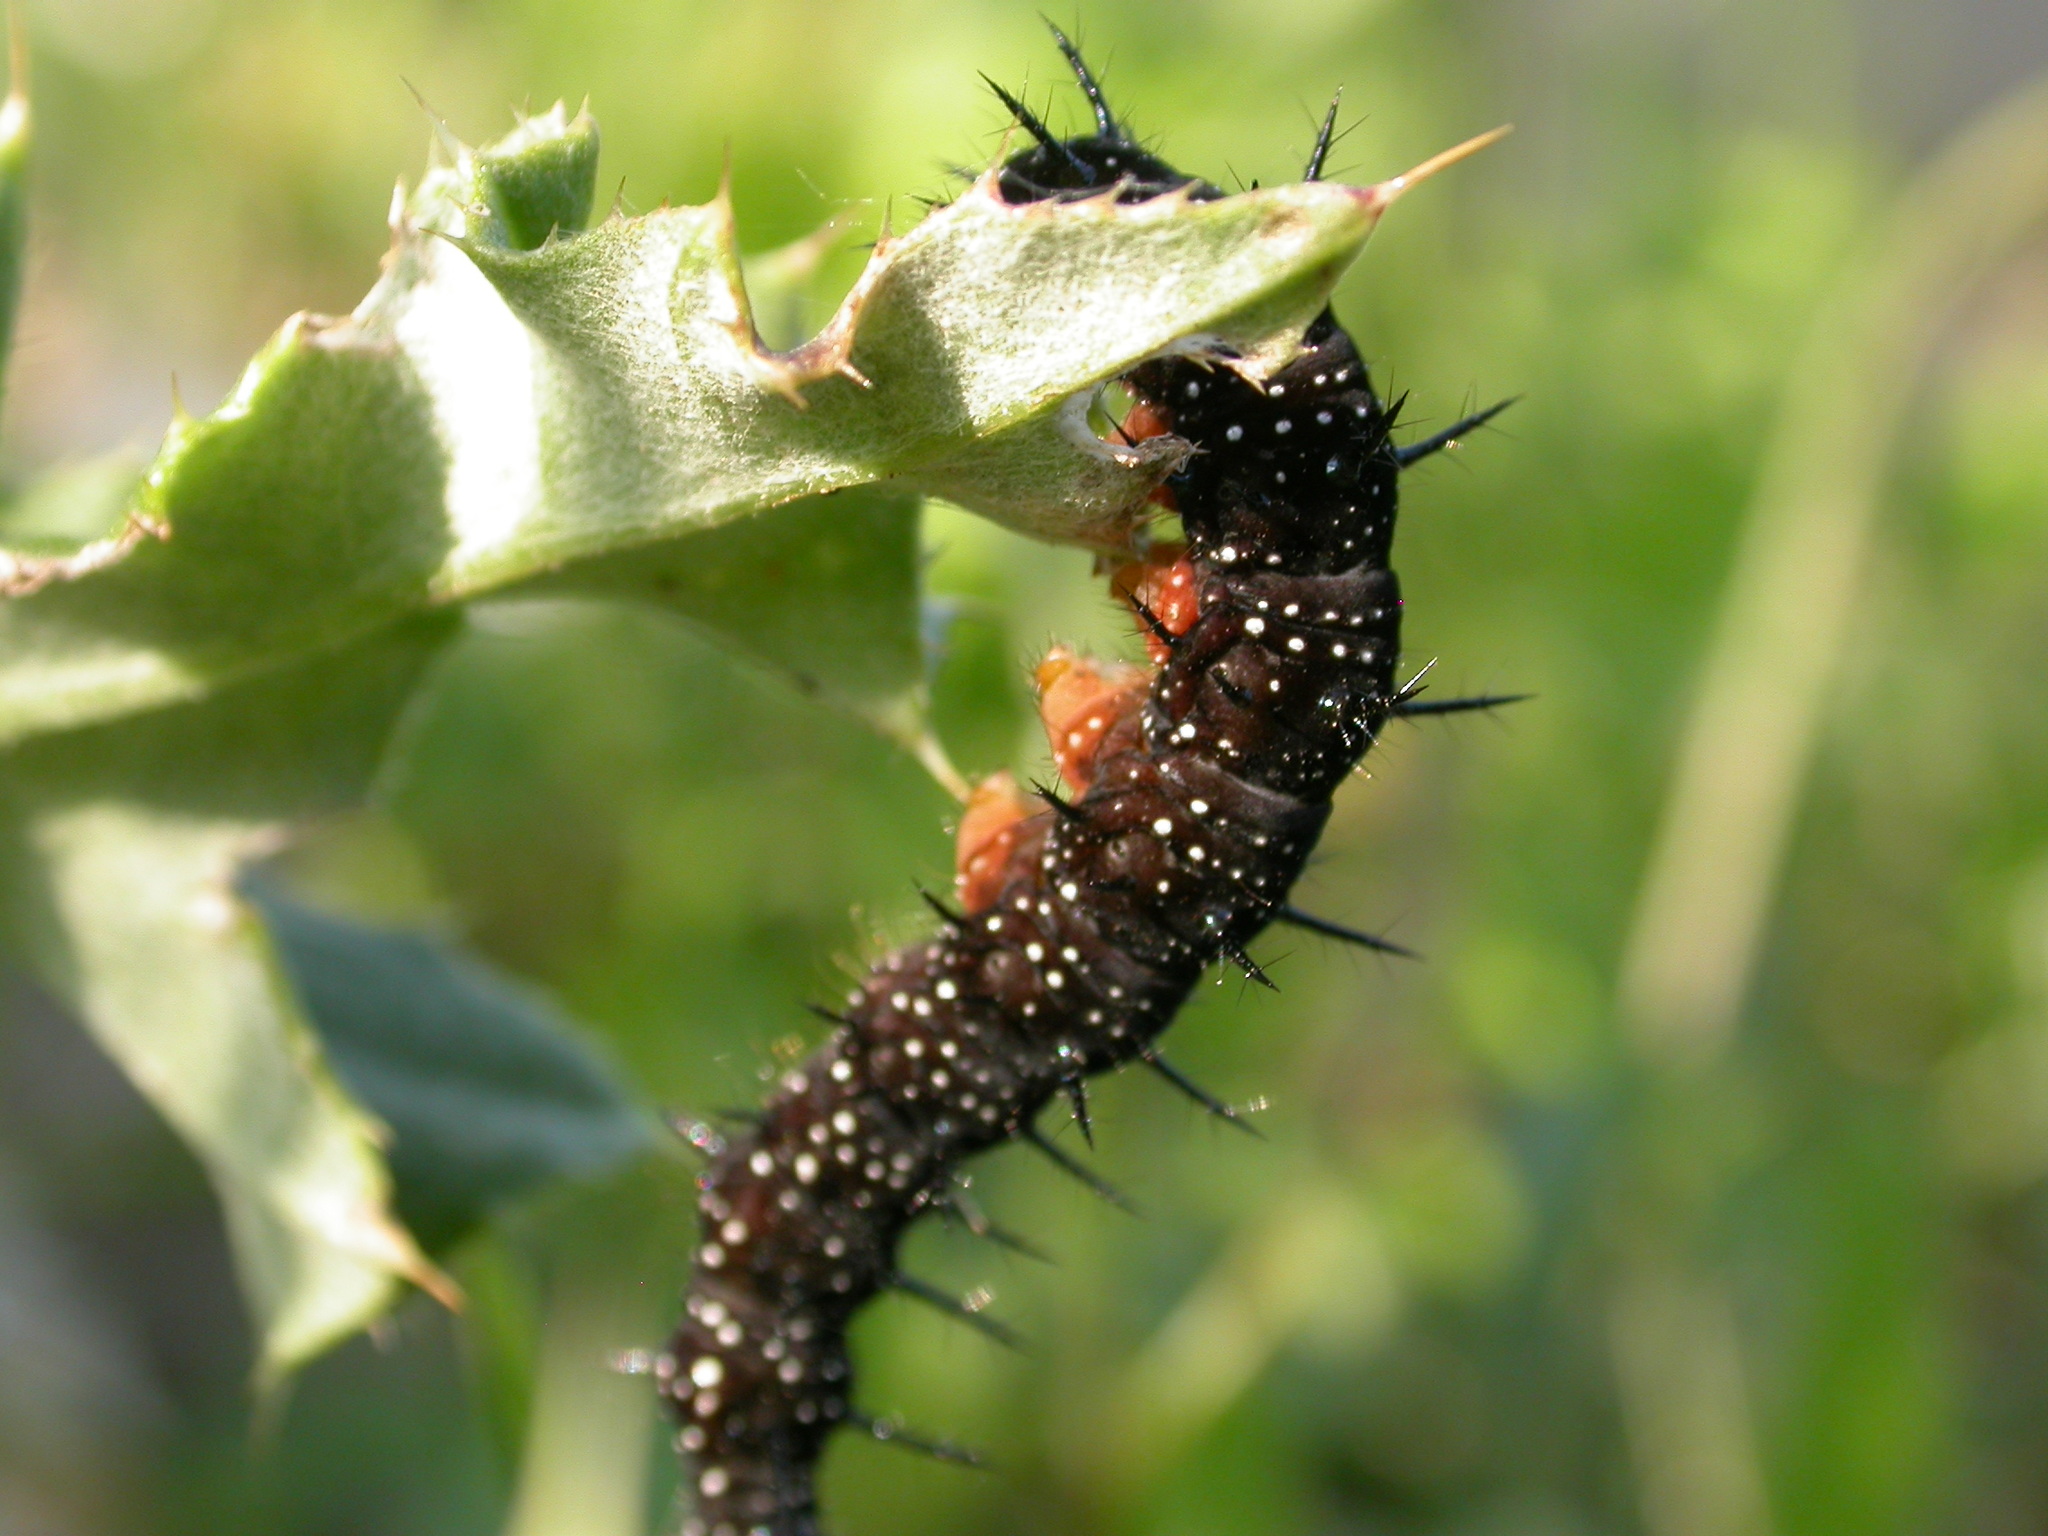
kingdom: Animalia
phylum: Arthropoda
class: Insecta
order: Lepidoptera
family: Nymphalidae
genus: Aglais
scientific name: Aglais io
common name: Peacock
